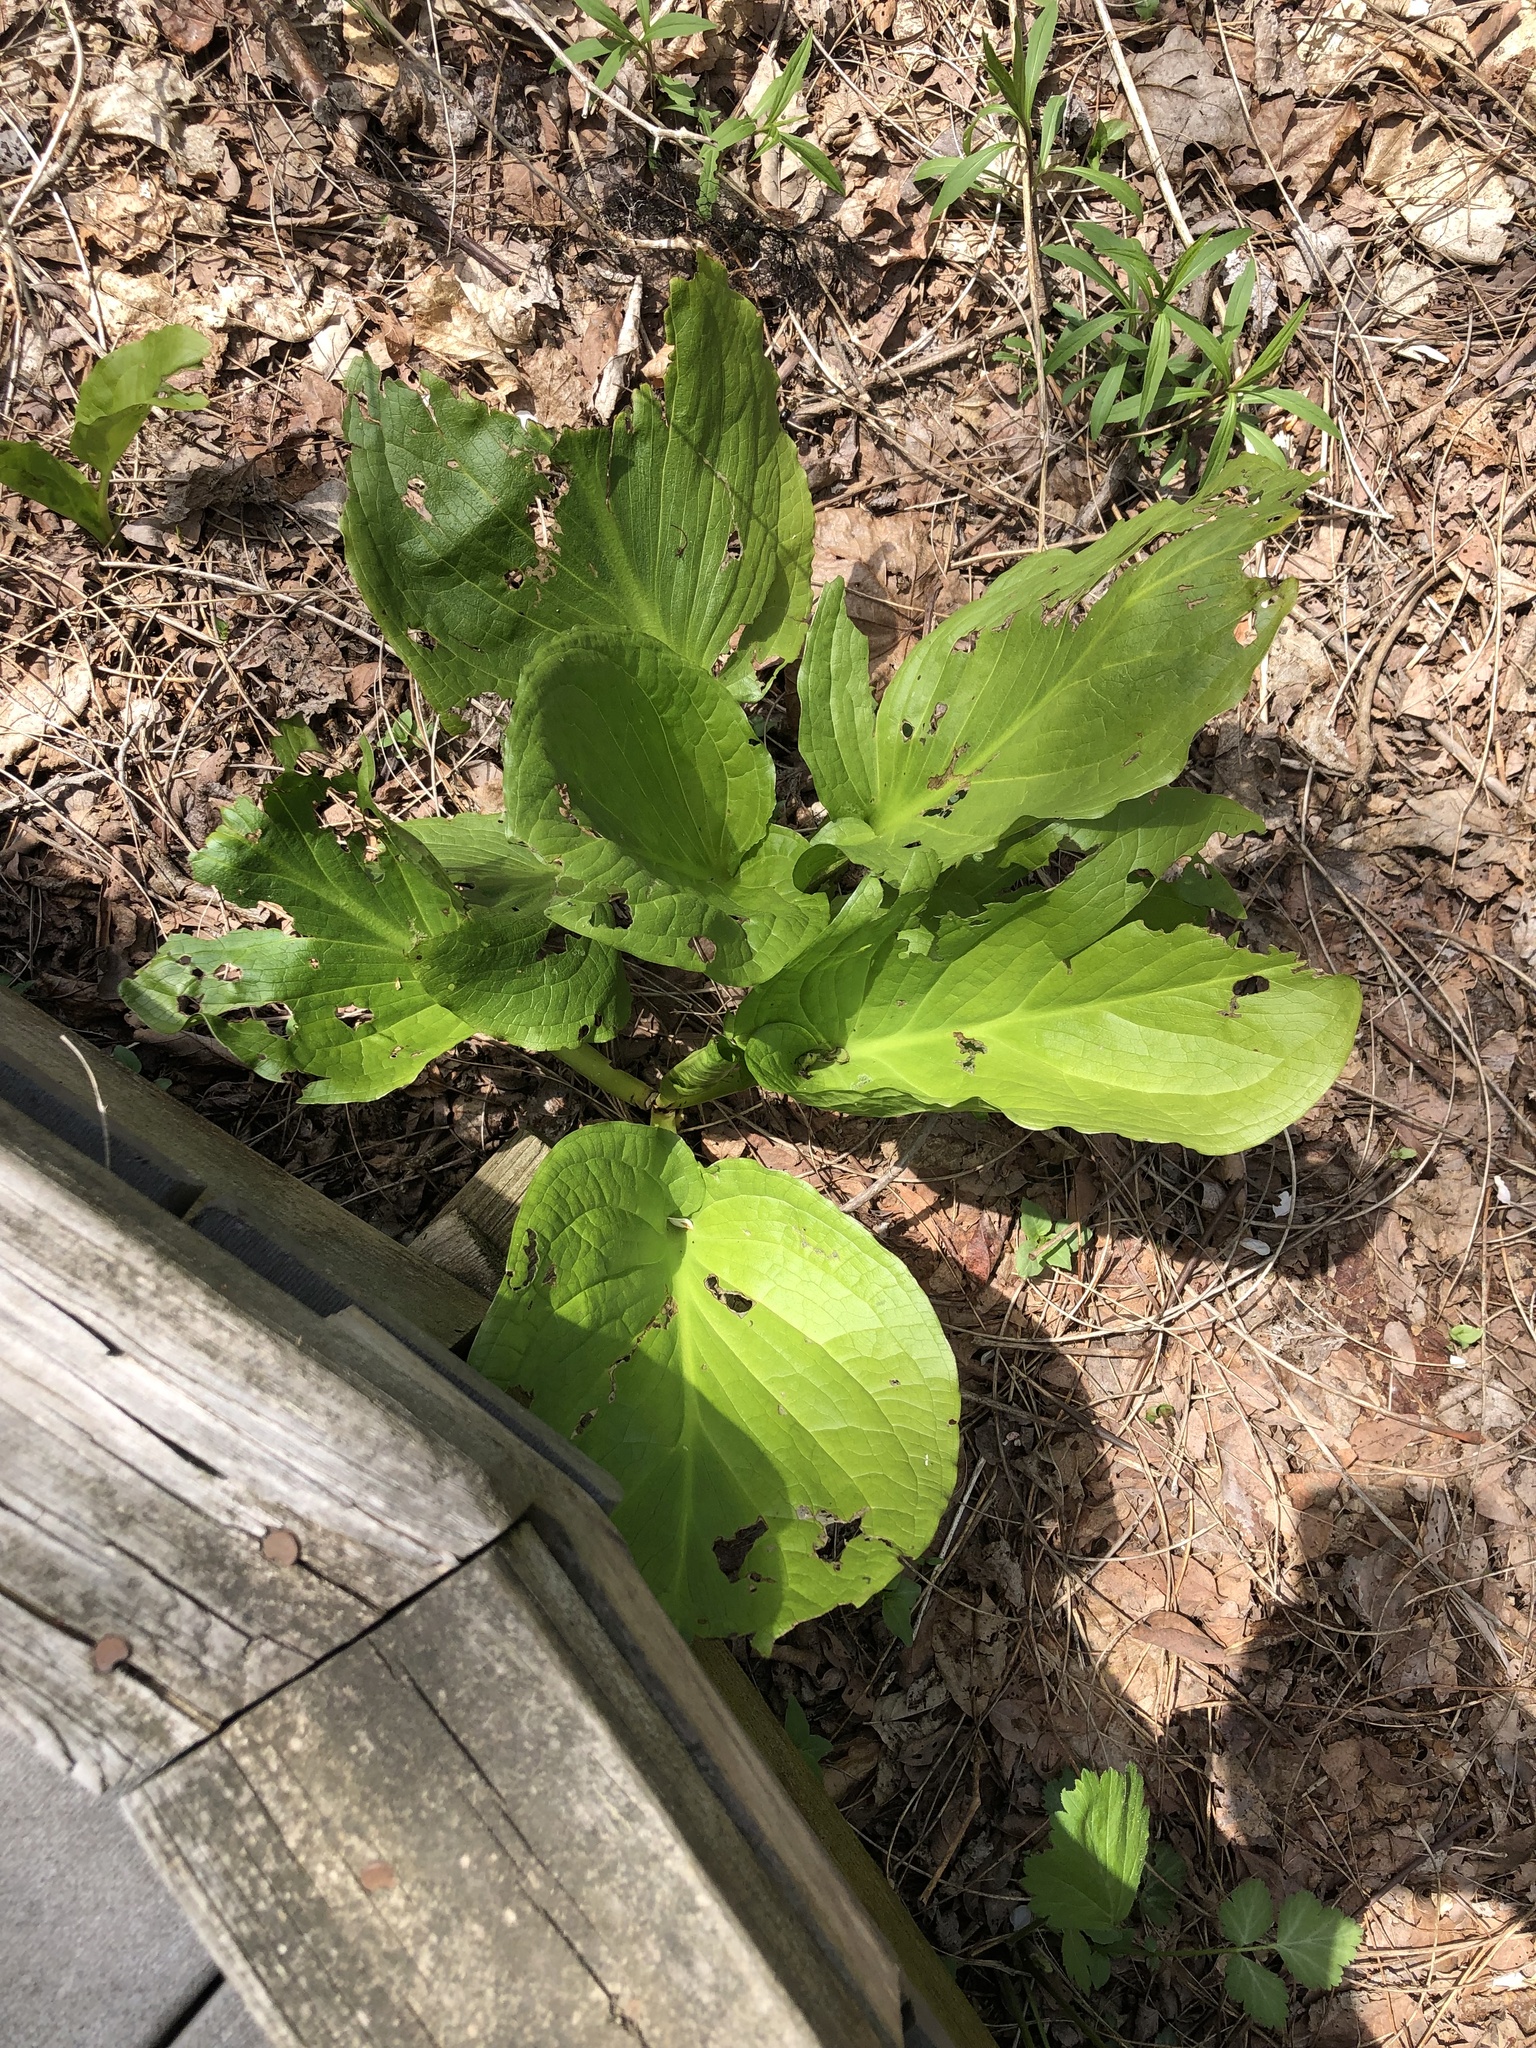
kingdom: Plantae
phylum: Tracheophyta
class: Liliopsida
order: Alismatales
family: Araceae
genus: Symplocarpus
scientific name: Symplocarpus foetidus
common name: Eastern skunk cabbage
